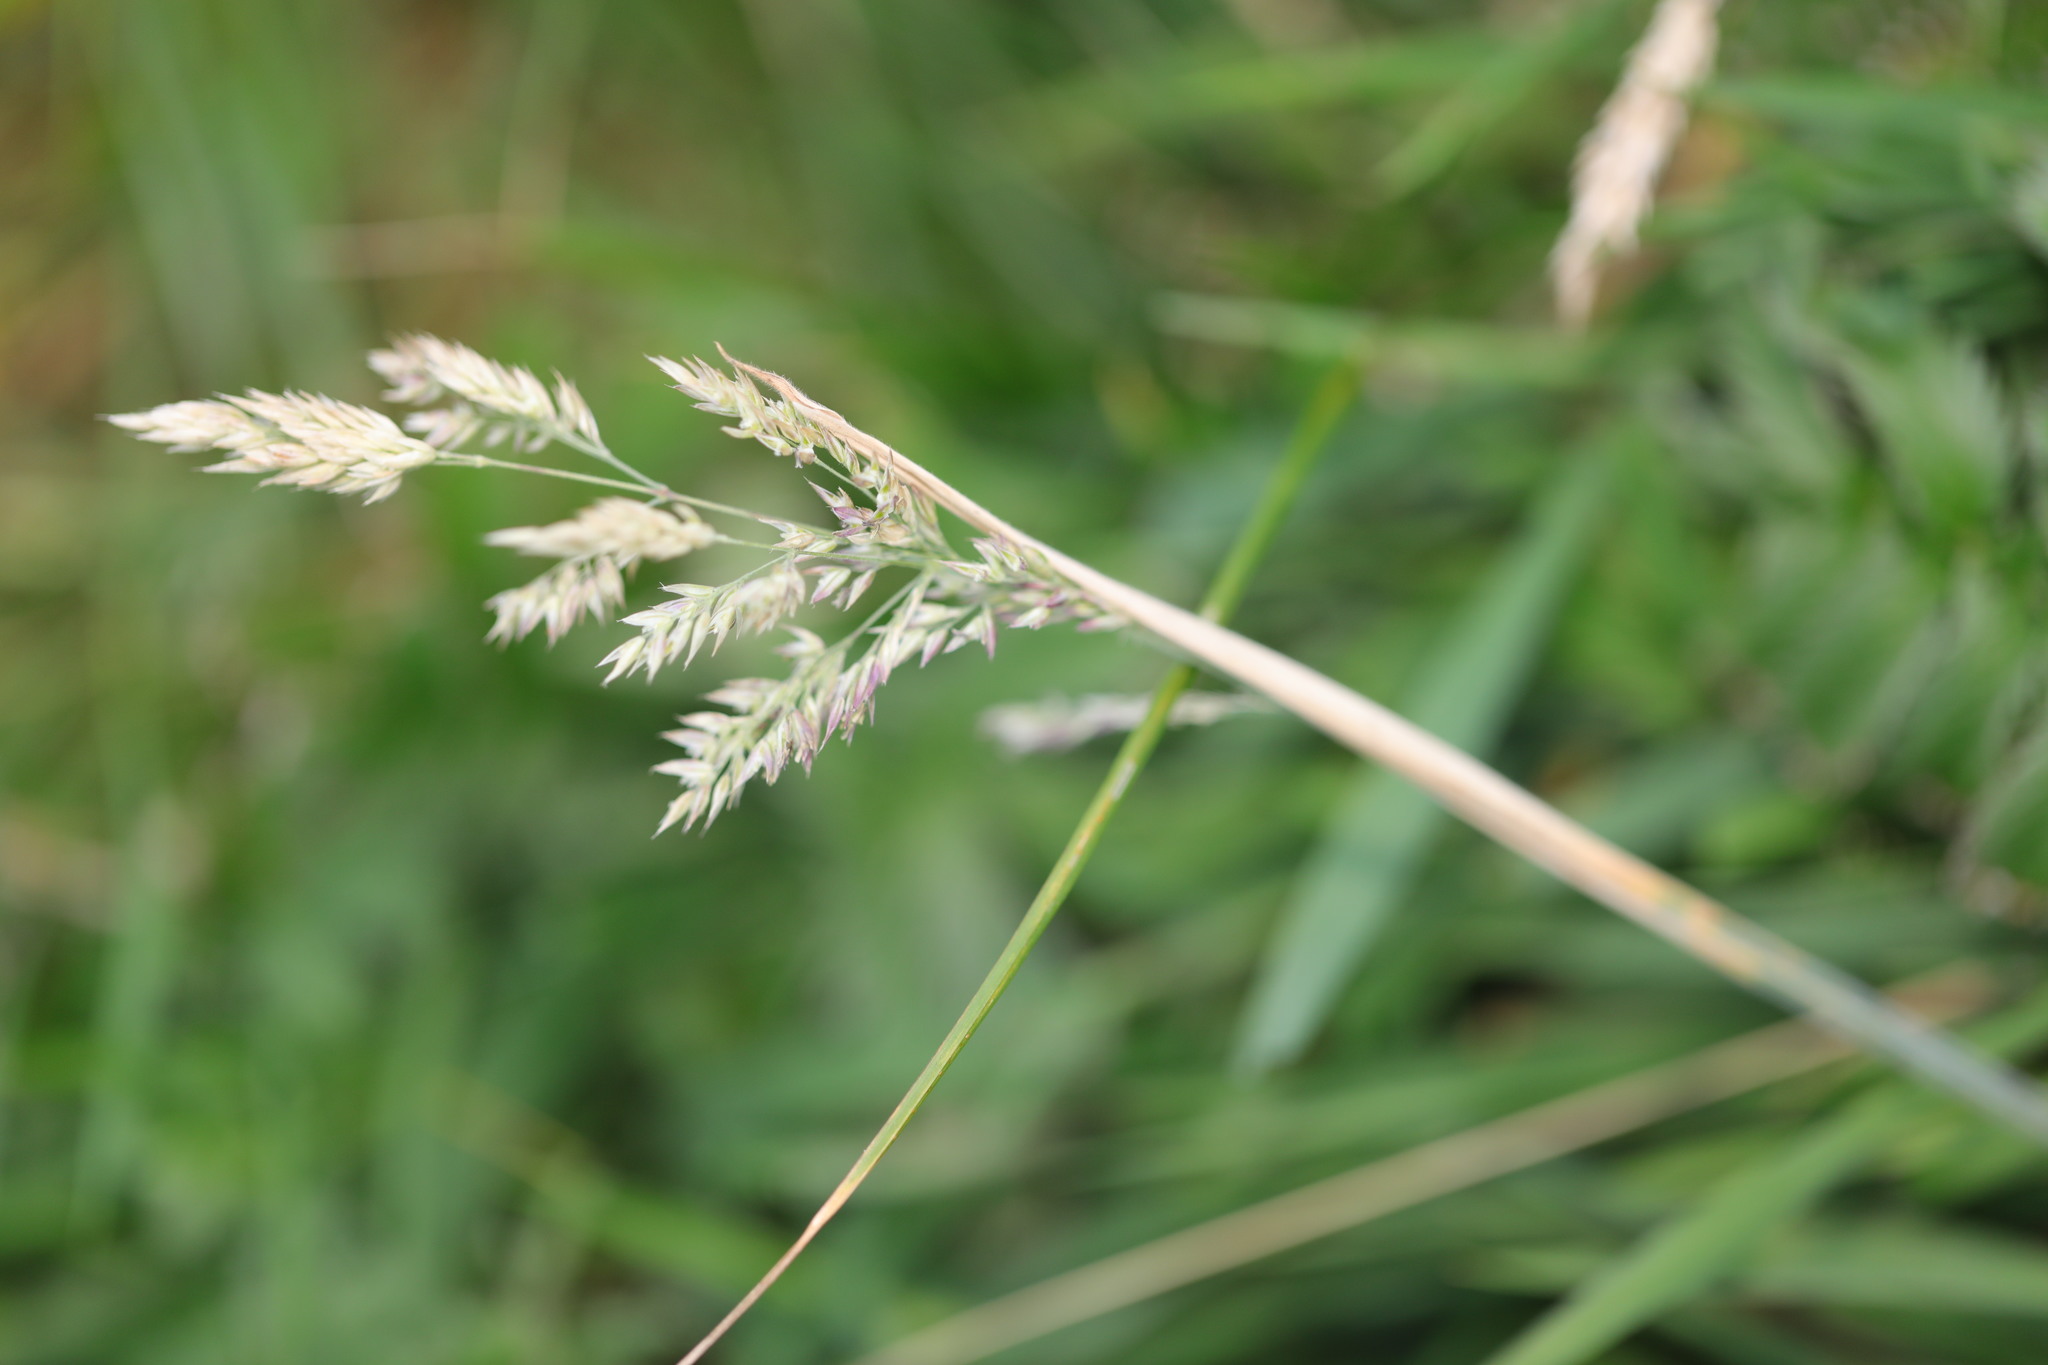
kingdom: Plantae
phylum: Tracheophyta
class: Liliopsida
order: Poales
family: Poaceae
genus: Holcus
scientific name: Holcus lanatus
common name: Yorkshire-fog
